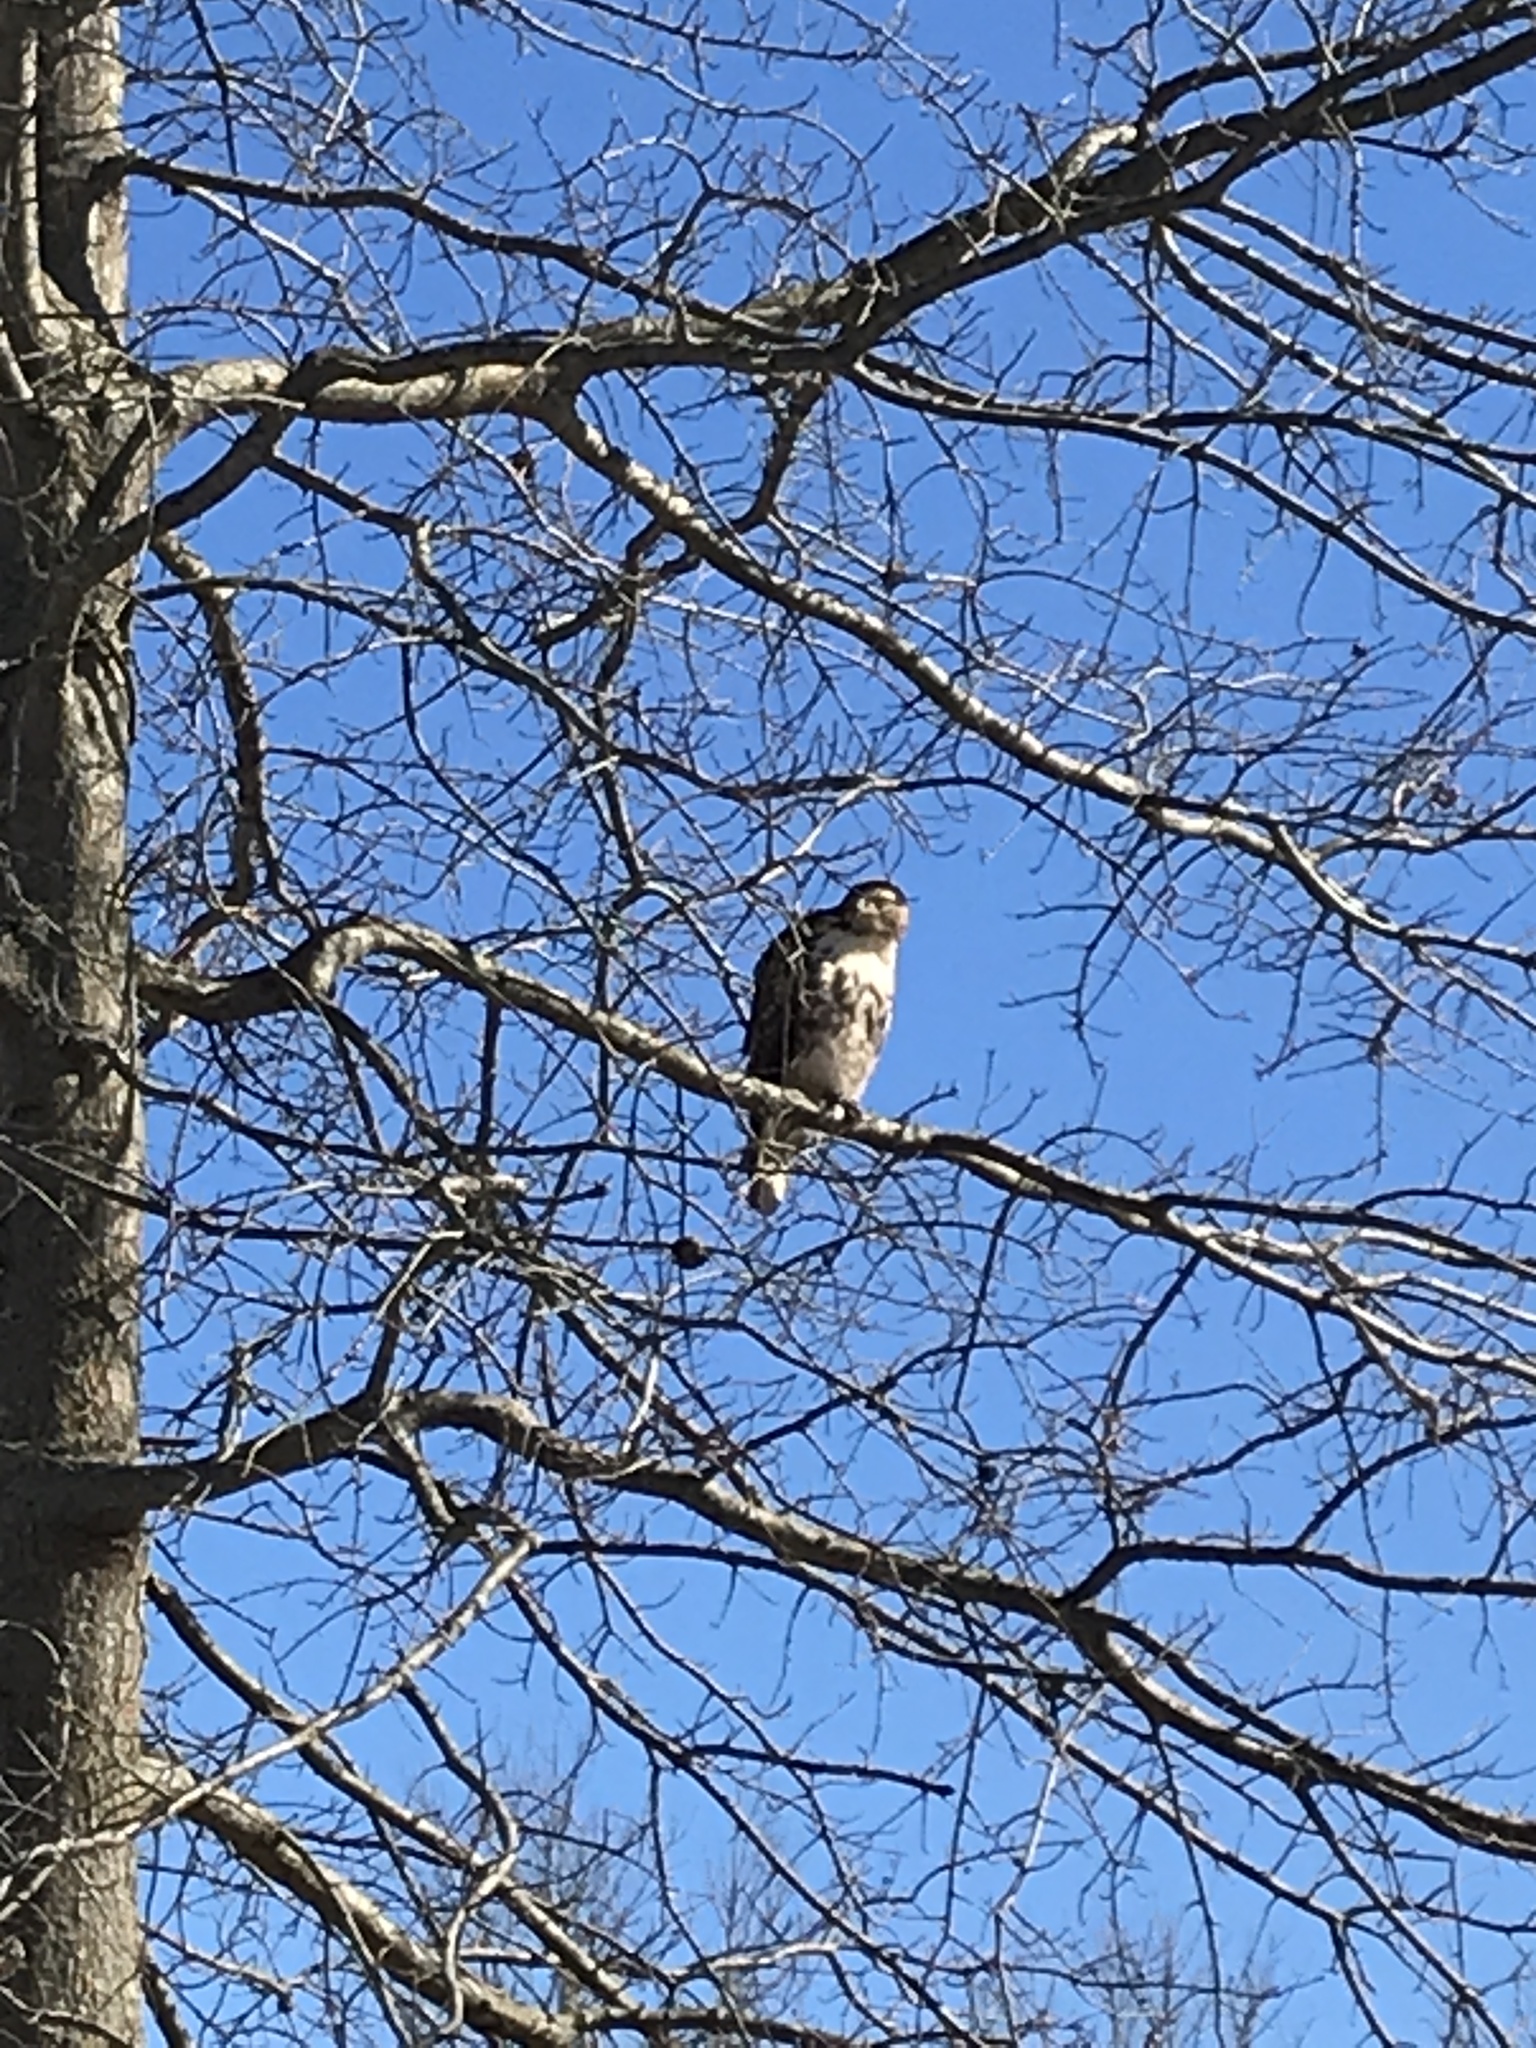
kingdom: Animalia
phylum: Chordata
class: Aves
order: Accipitriformes
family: Accipitridae
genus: Buteo
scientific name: Buteo jamaicensis
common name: Red-tailed hawk
